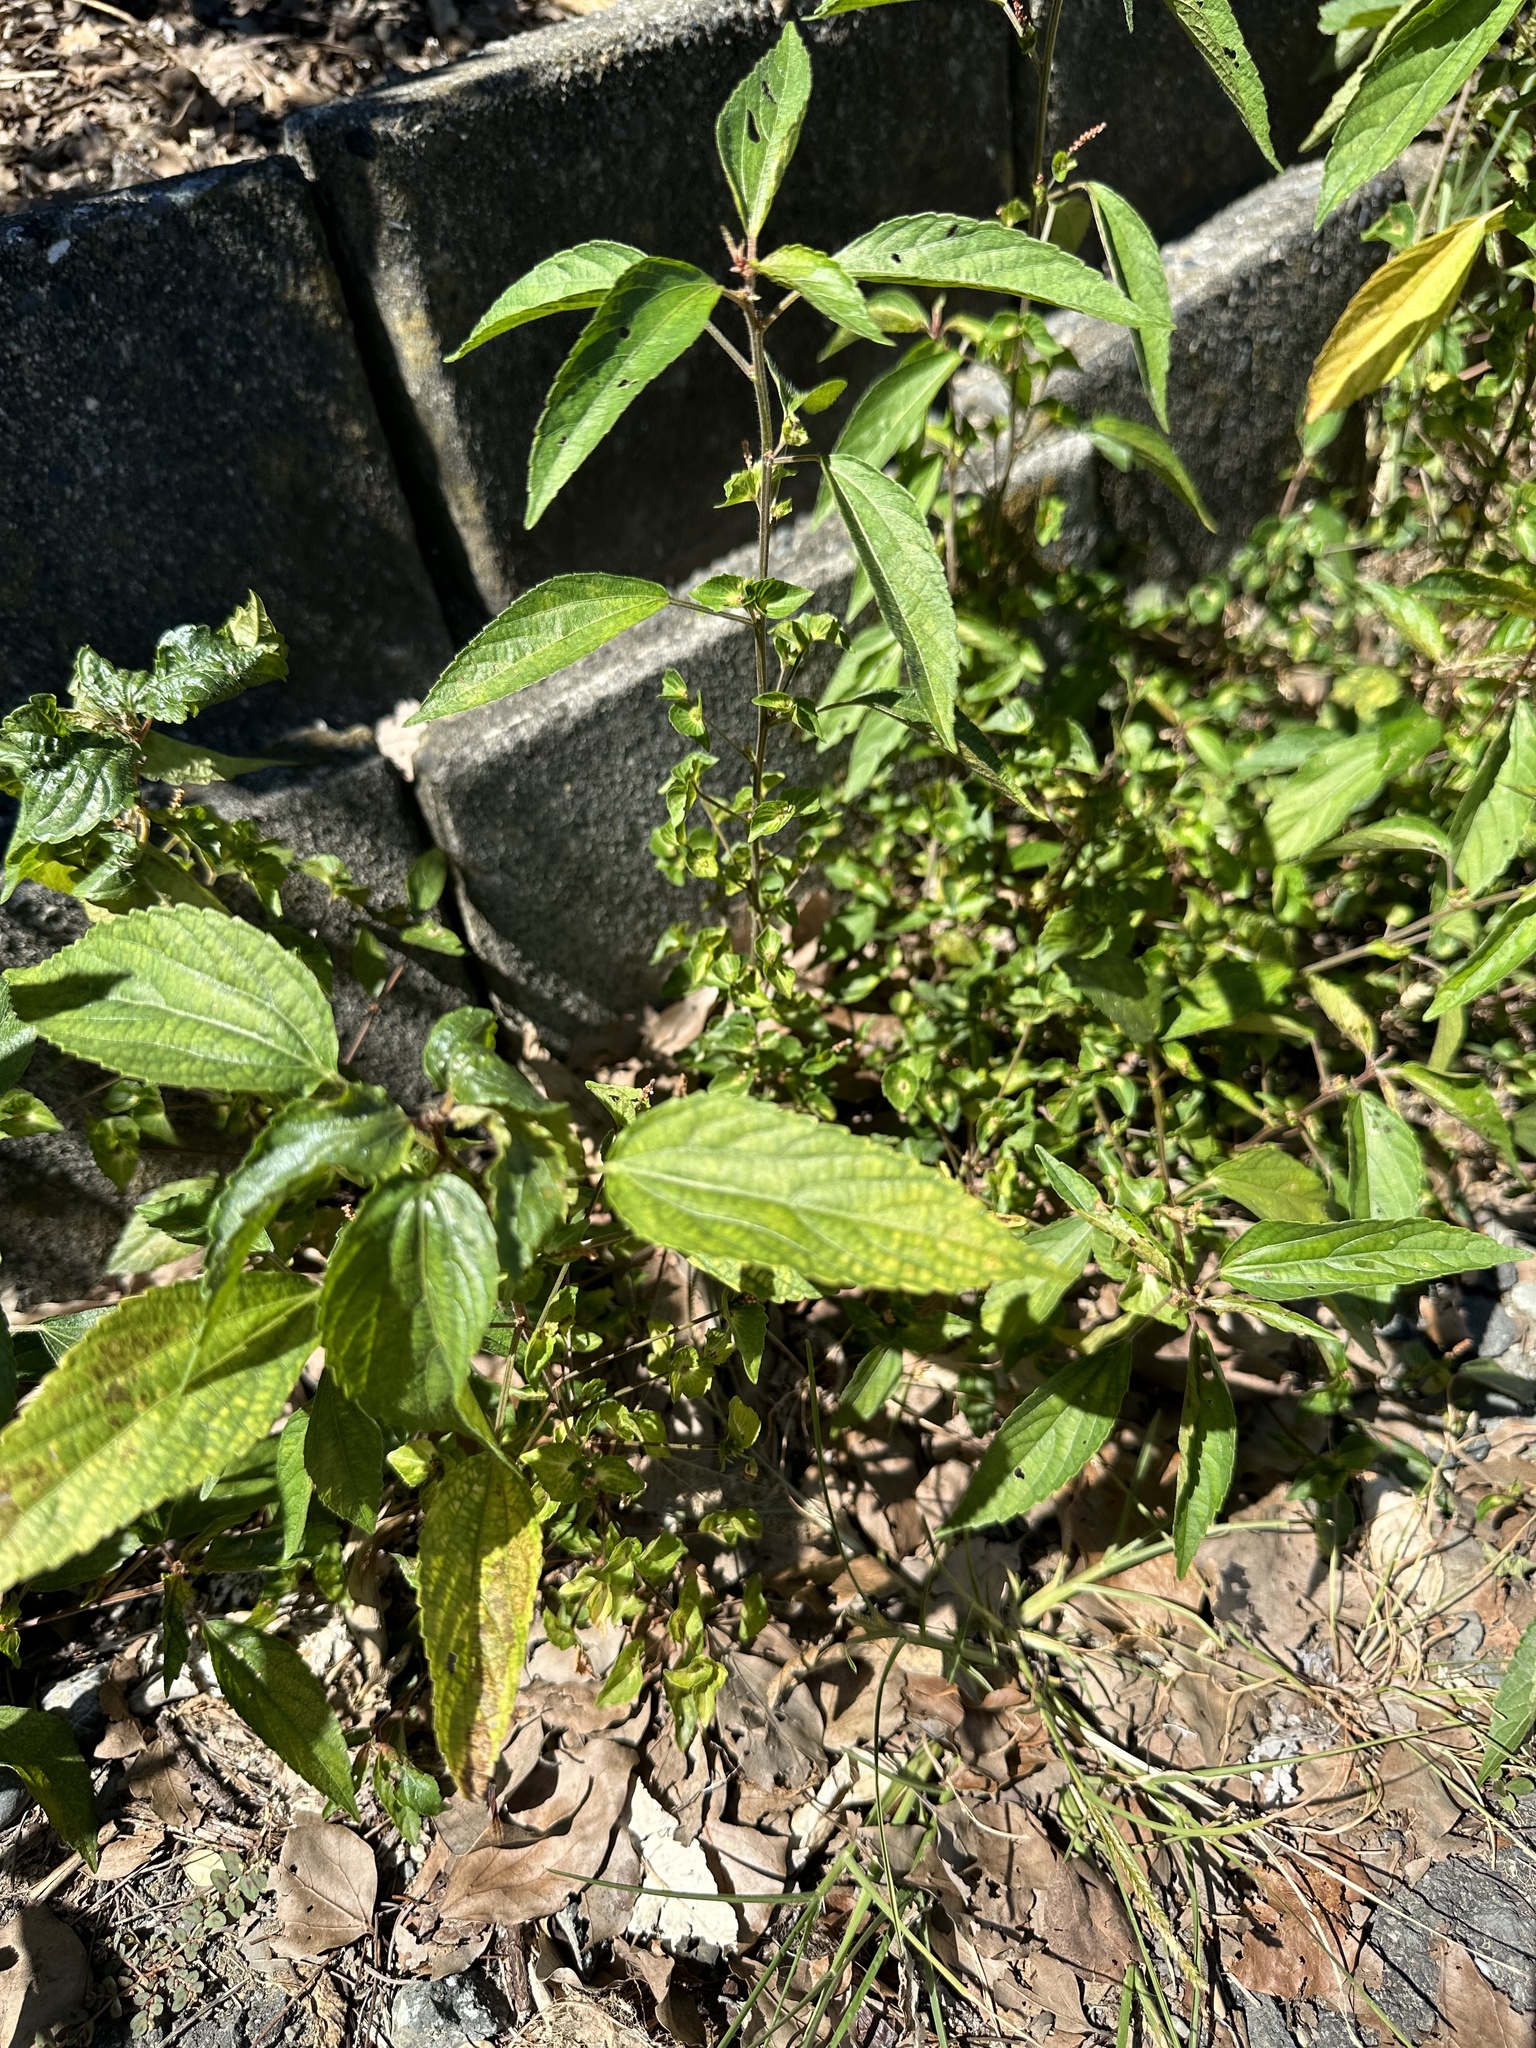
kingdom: Plantae
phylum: Tracheophyta
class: Magnoliopsida
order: Malpighiales
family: Euphorbiaceae
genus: Acalypha
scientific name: Acalypha australis
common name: Asian copperleaf
